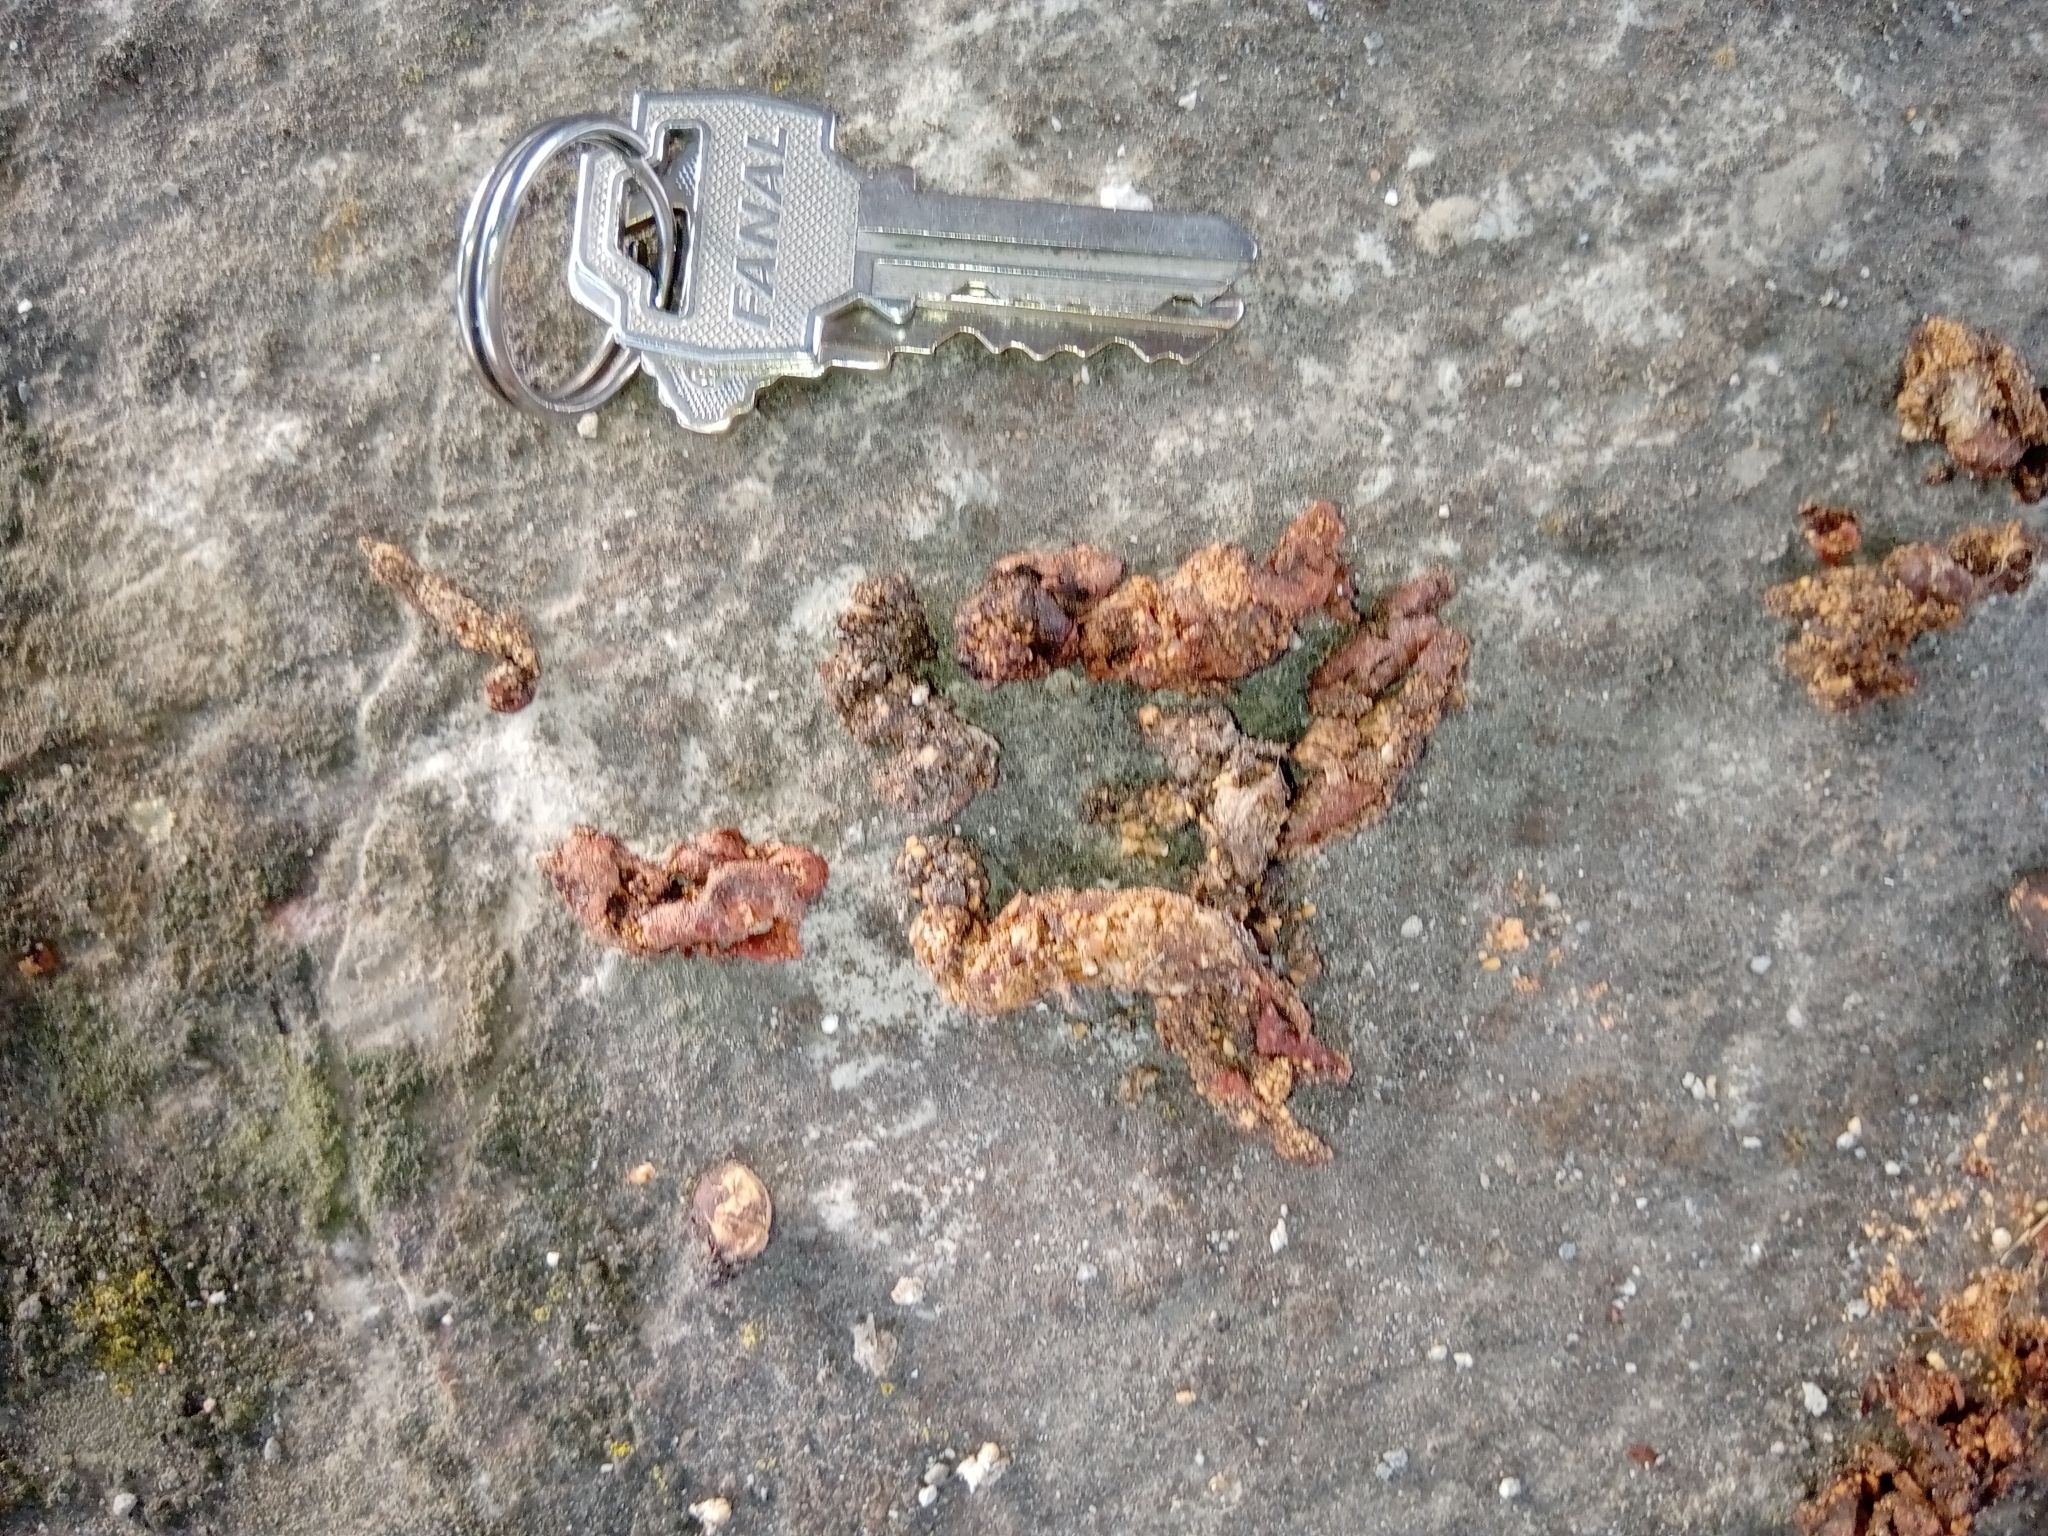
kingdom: Animalia
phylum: Chordata
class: Mammalia
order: Carnivora
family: Procyonidae
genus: Bassariscus
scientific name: Bassariscus astutus
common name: Ringtail
